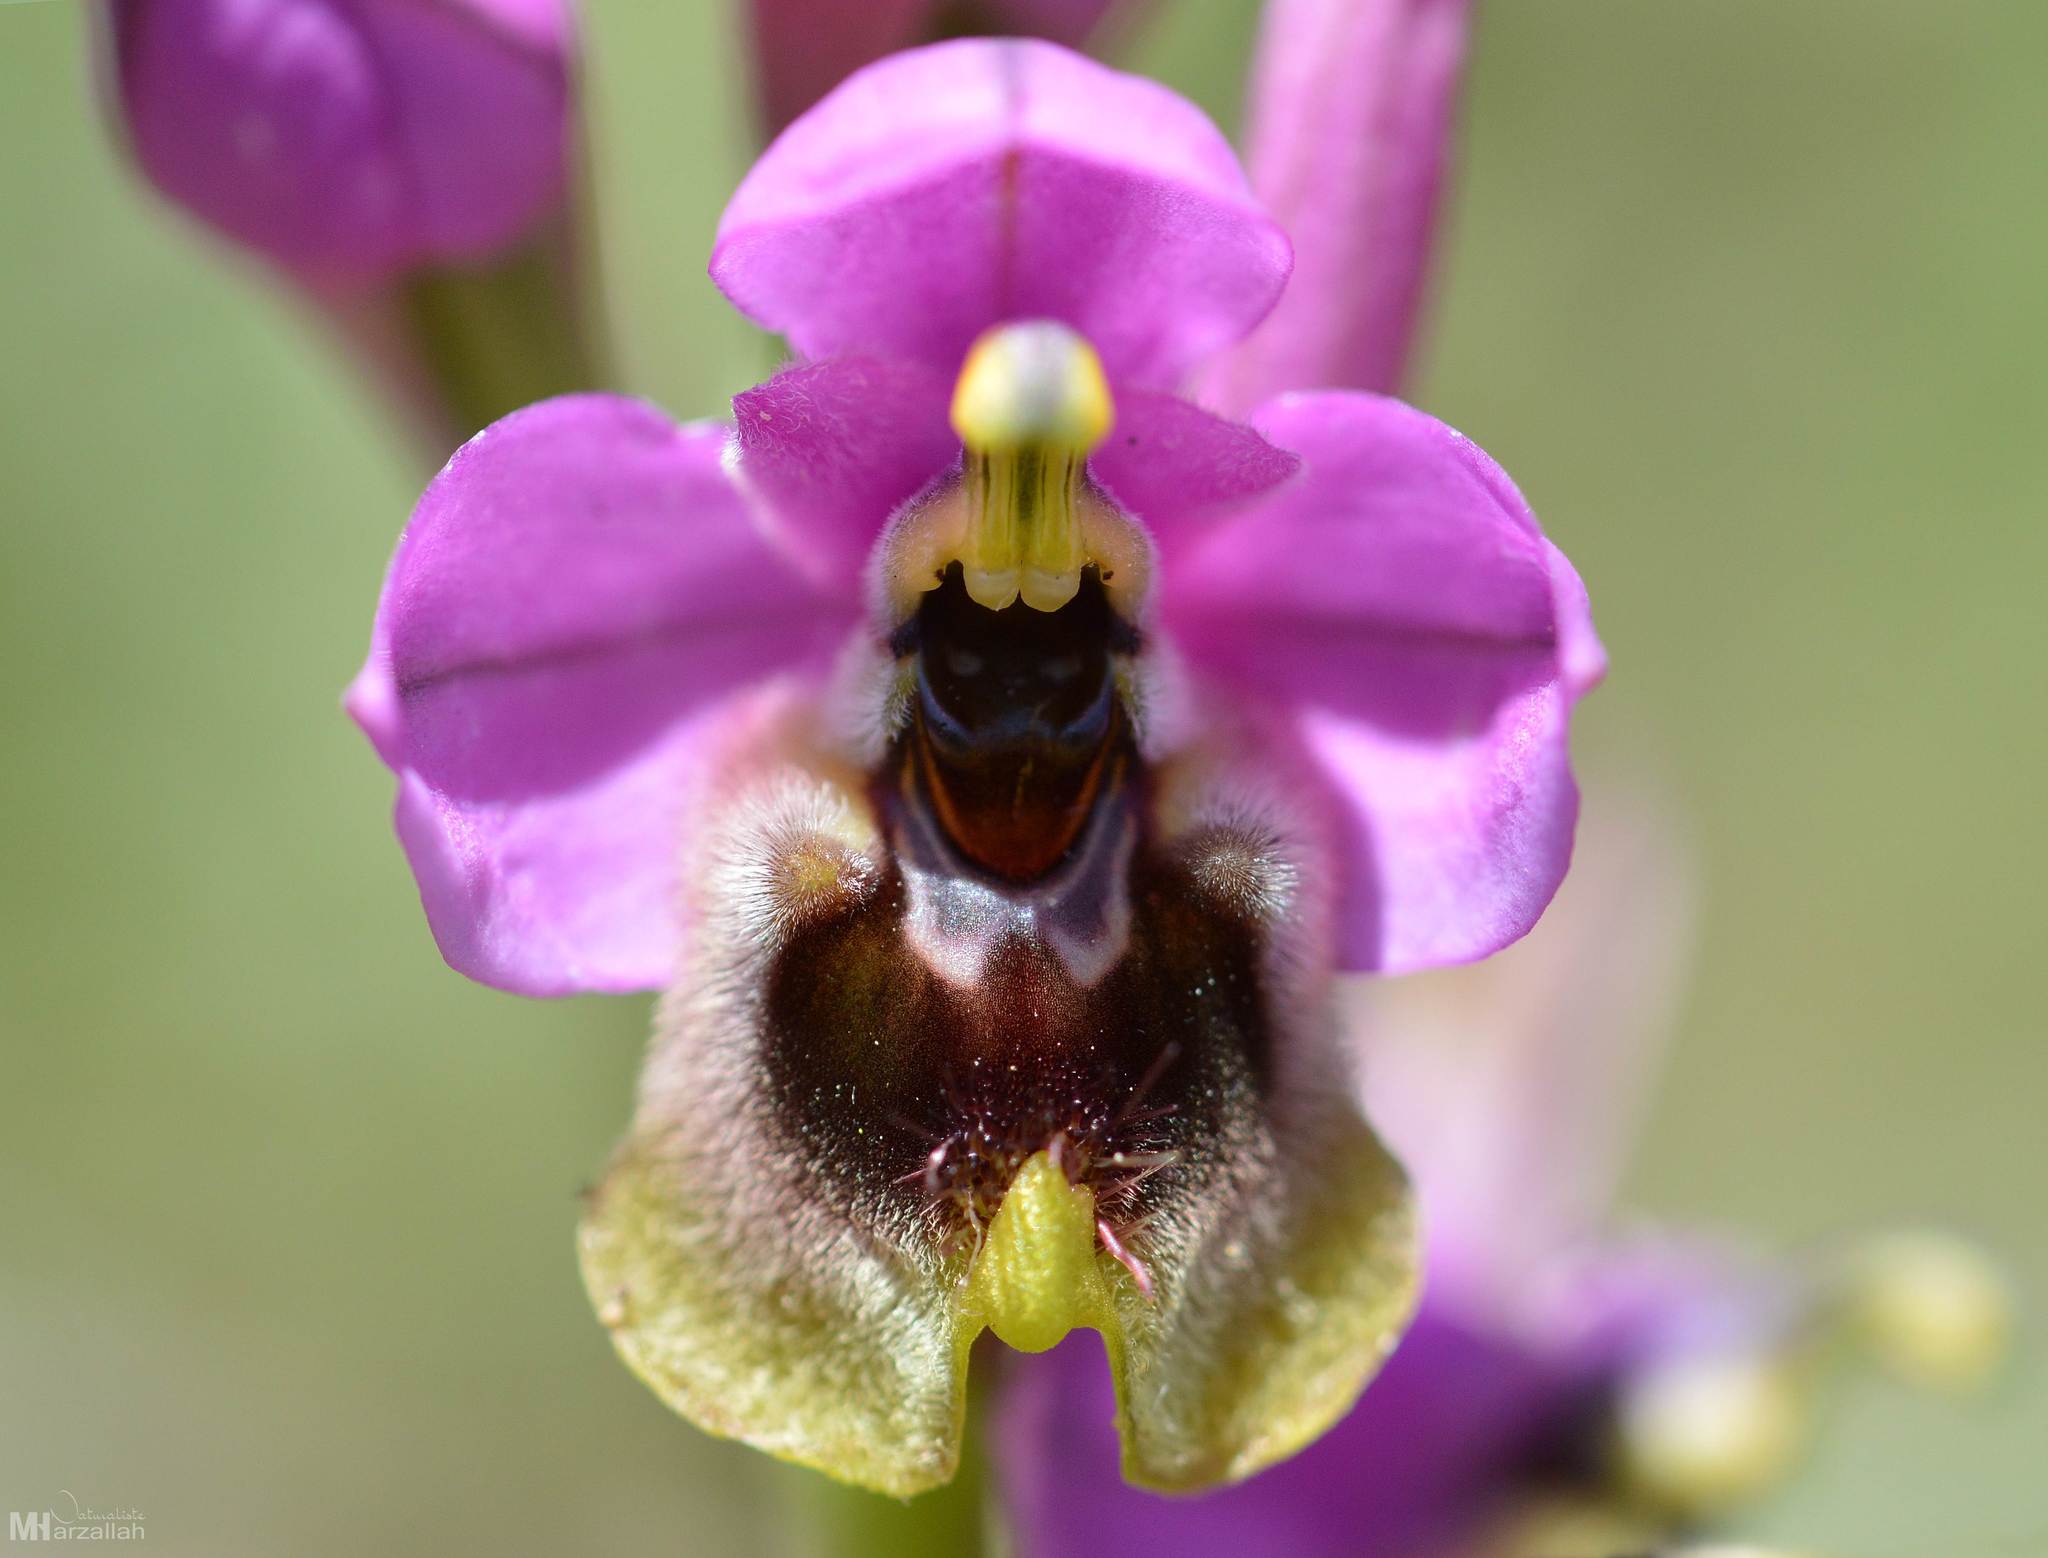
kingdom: Plantae
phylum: Tracheophyta
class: Liliopsida
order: Asparagales
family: Orchidaceae
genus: Ophrys
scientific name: Ophrys tenthredinifera
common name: Sawfly orchid
